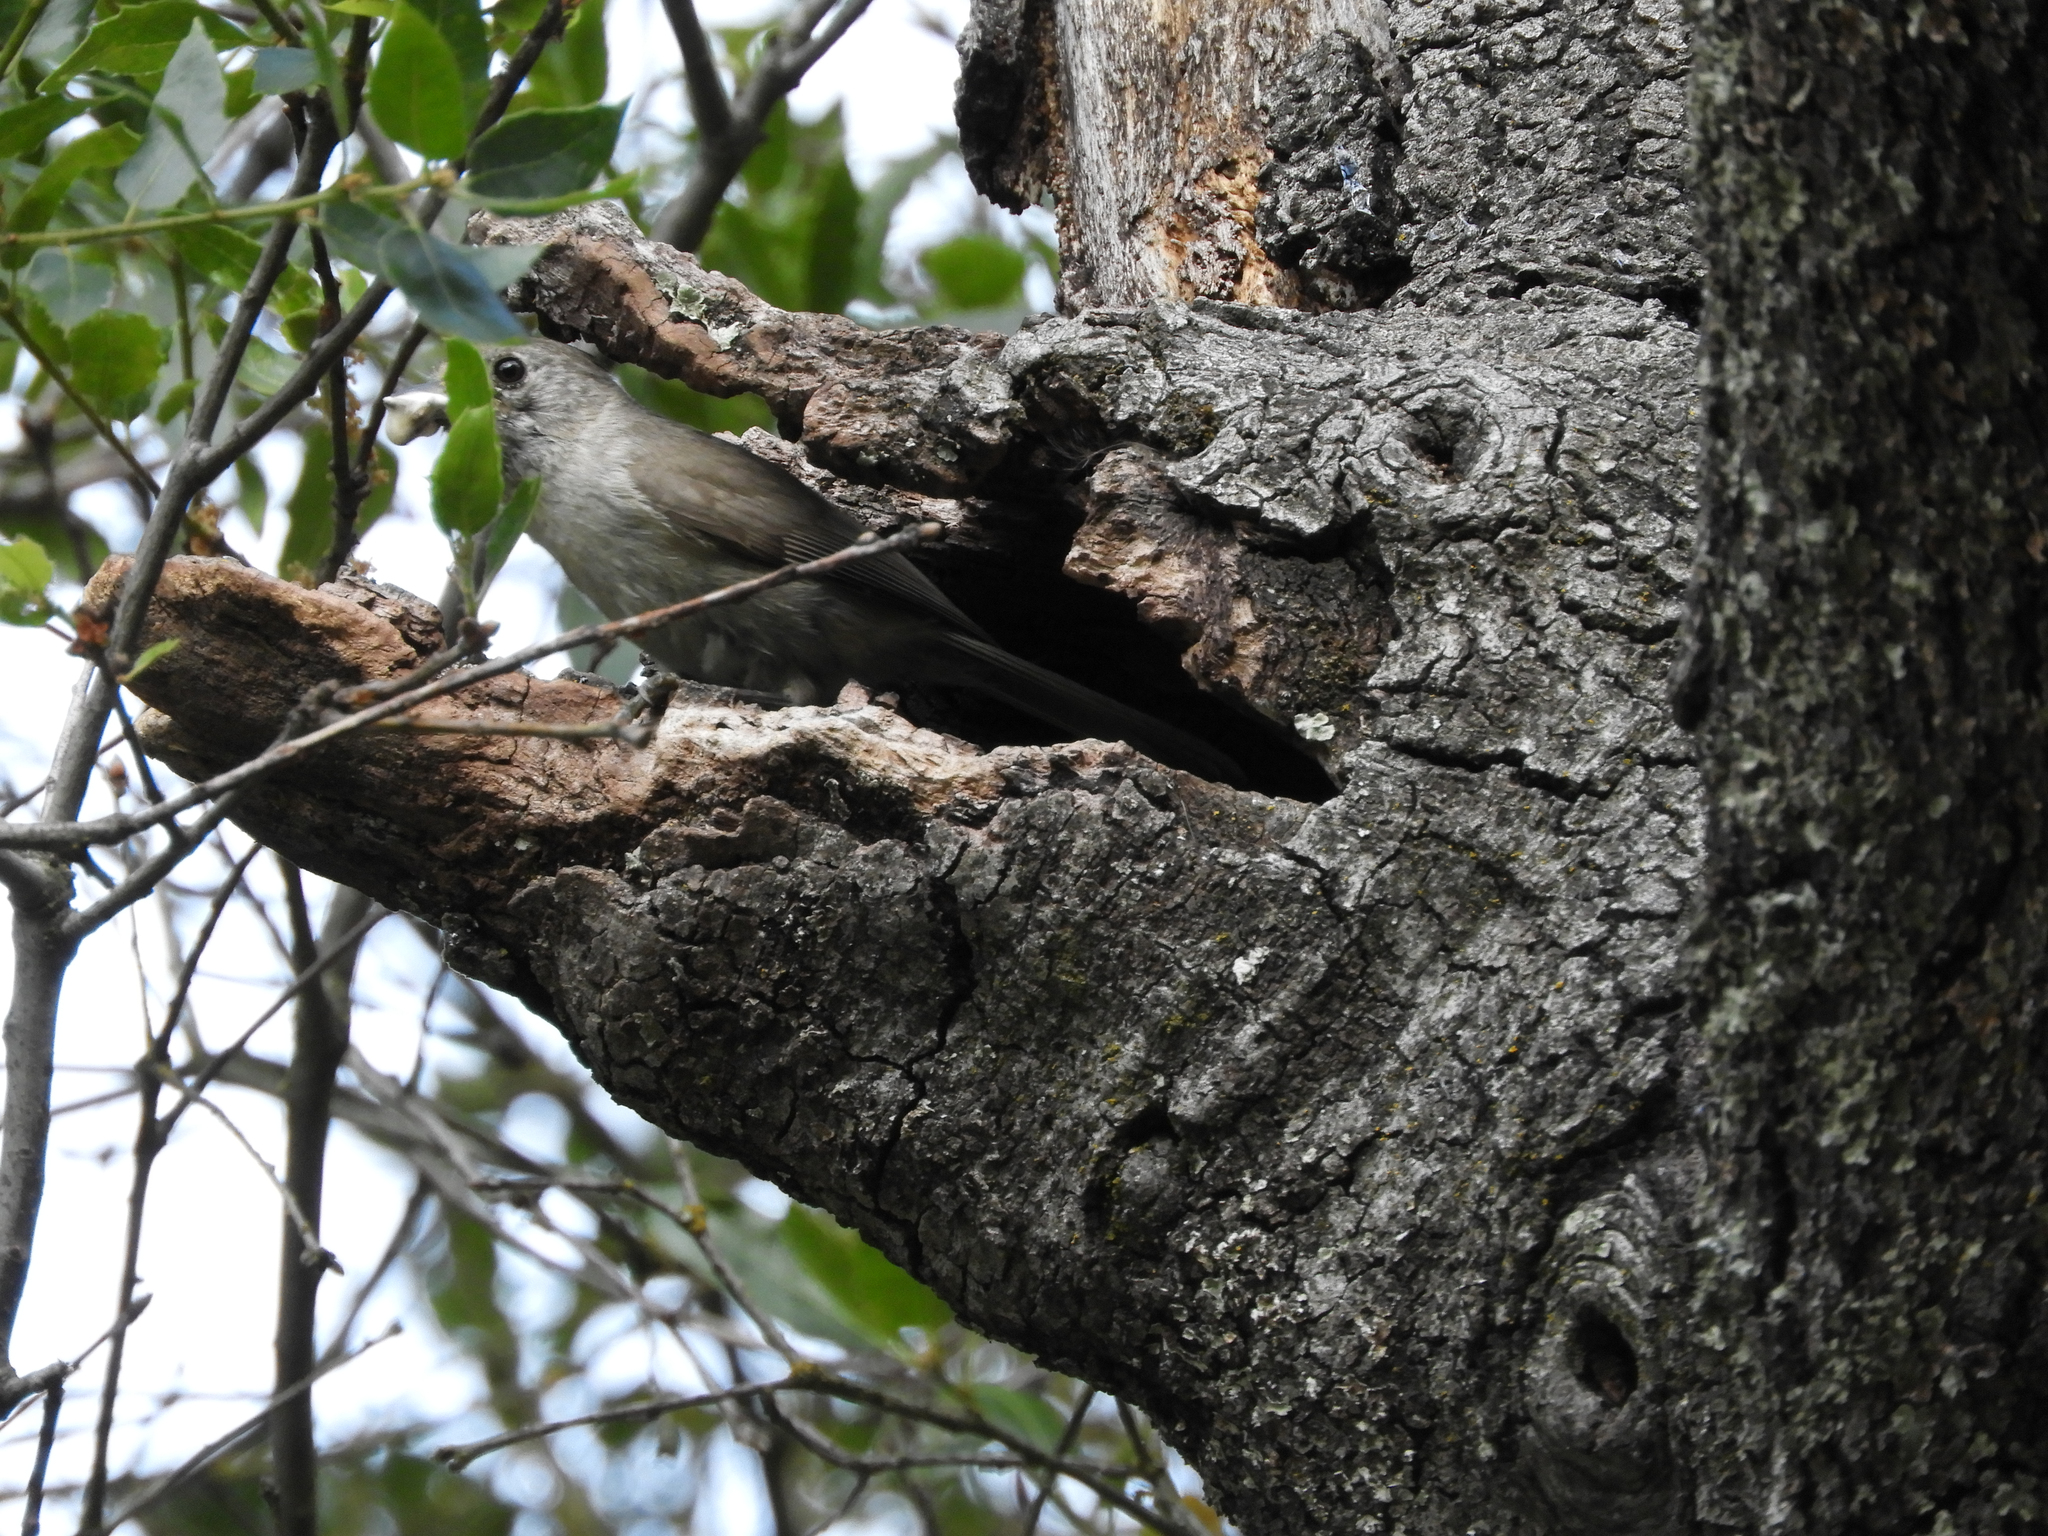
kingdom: Animalia
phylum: Chordata
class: Aves
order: Passeriformes
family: Paridae
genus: Baeolophus
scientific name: Baeolophus inornatus
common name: Oak titmouse
